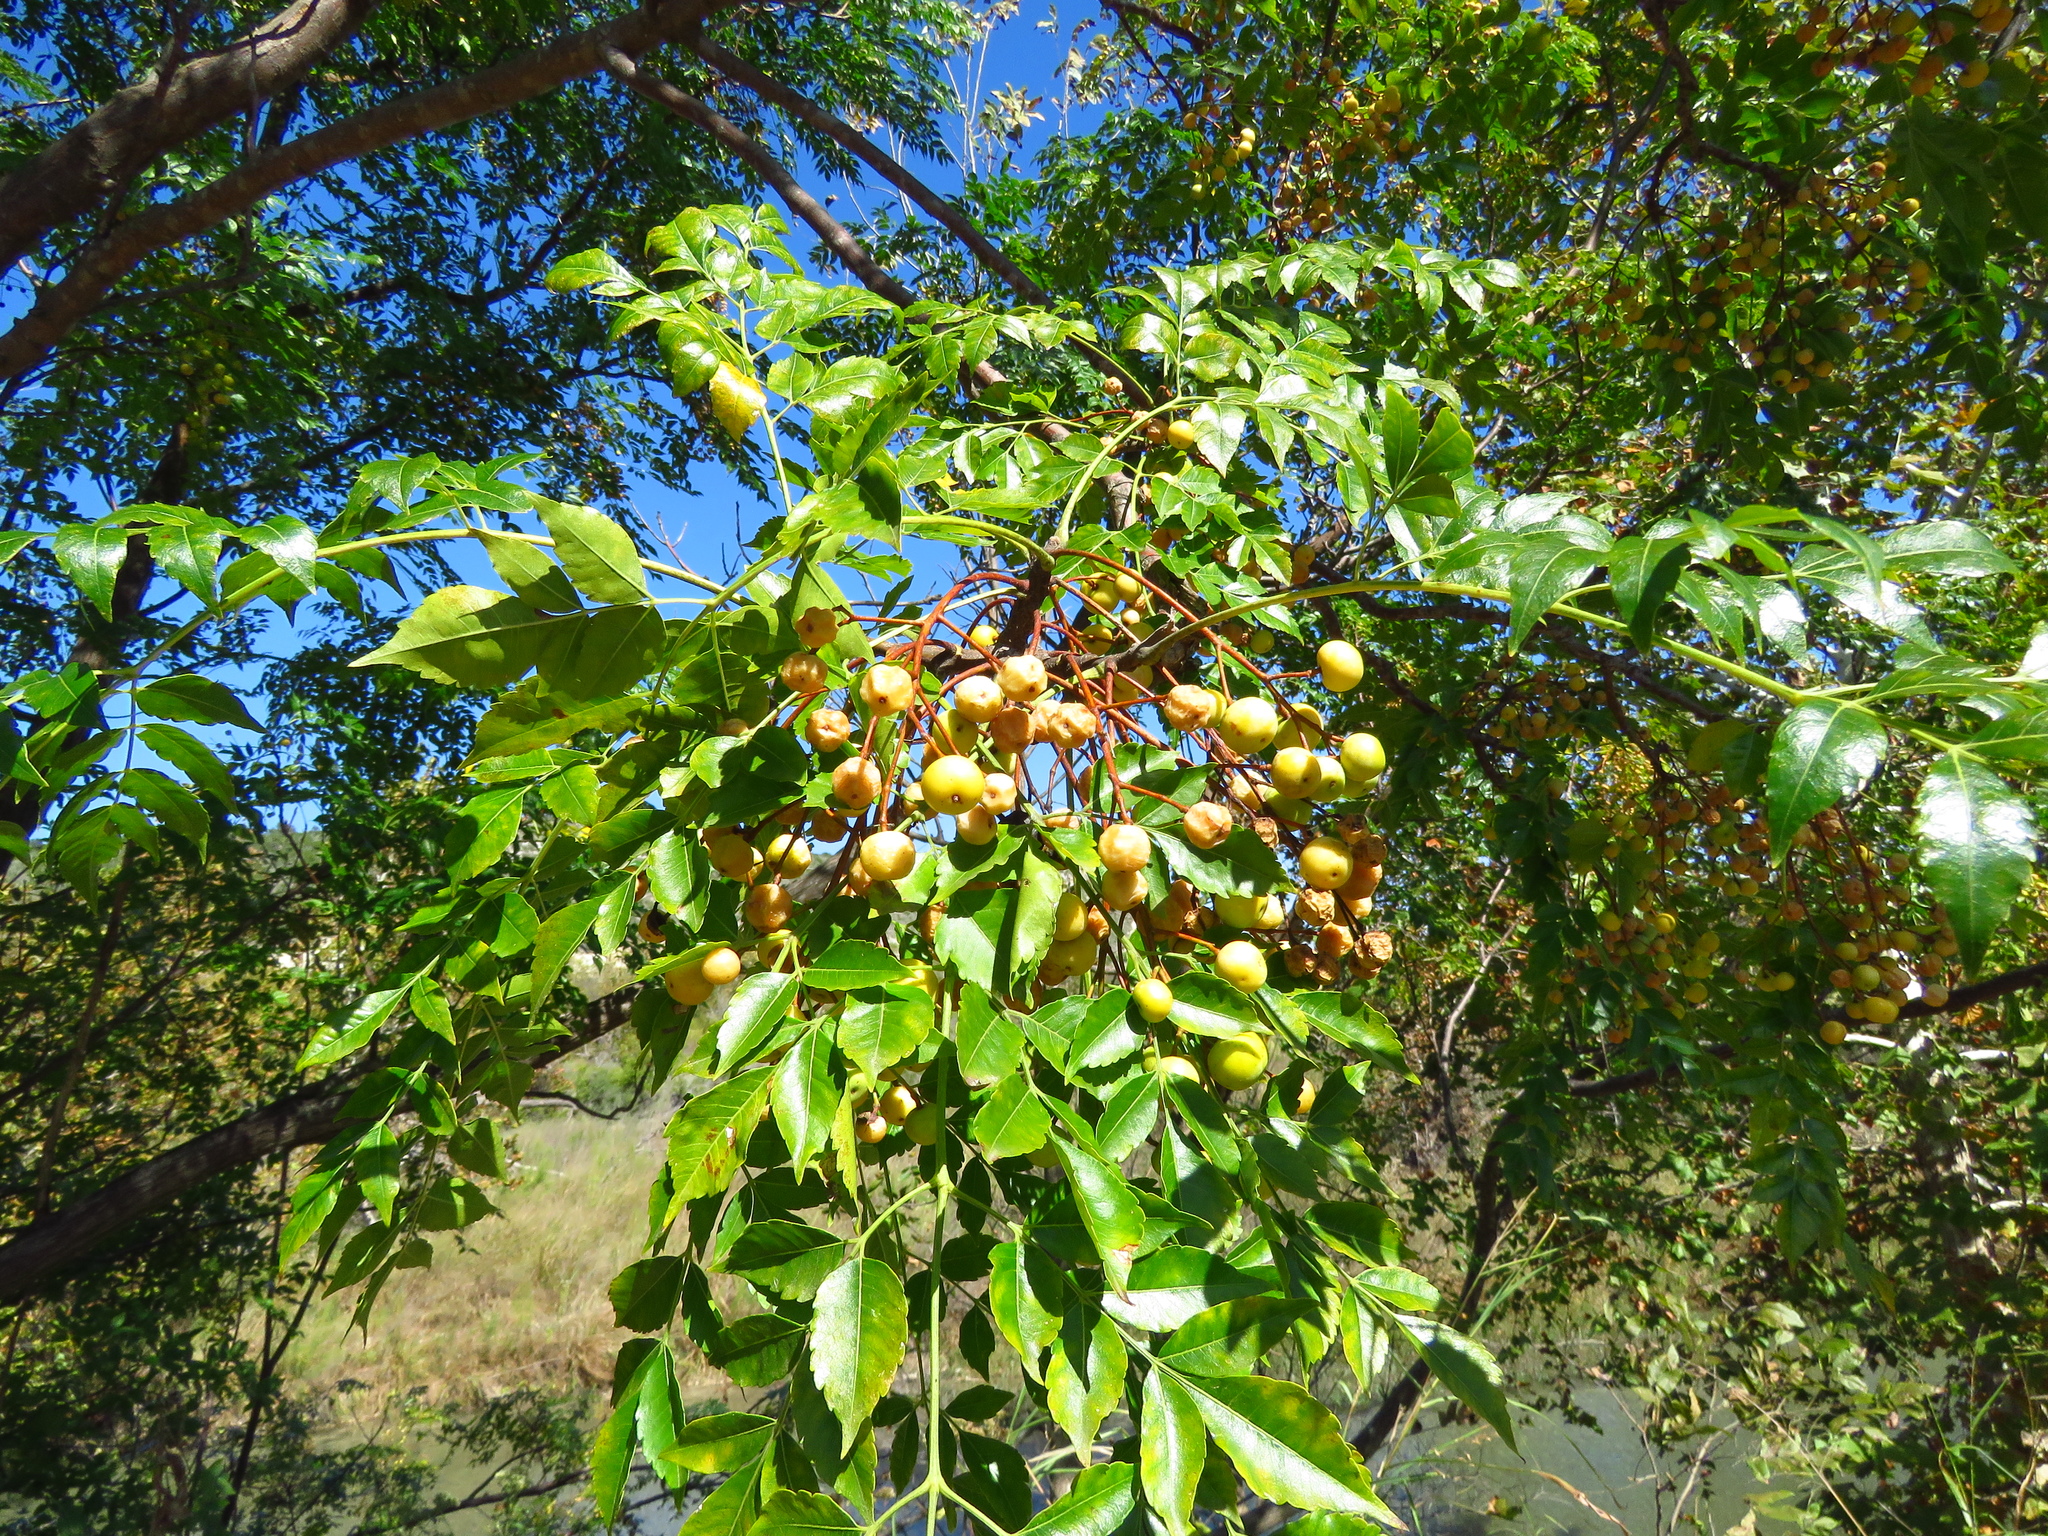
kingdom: Plantae
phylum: Tracheophyta
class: Magnoliopsida
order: Sapindales
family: Meliaceae
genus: Melia
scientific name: Melia azedarach
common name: Chinaberrytree
